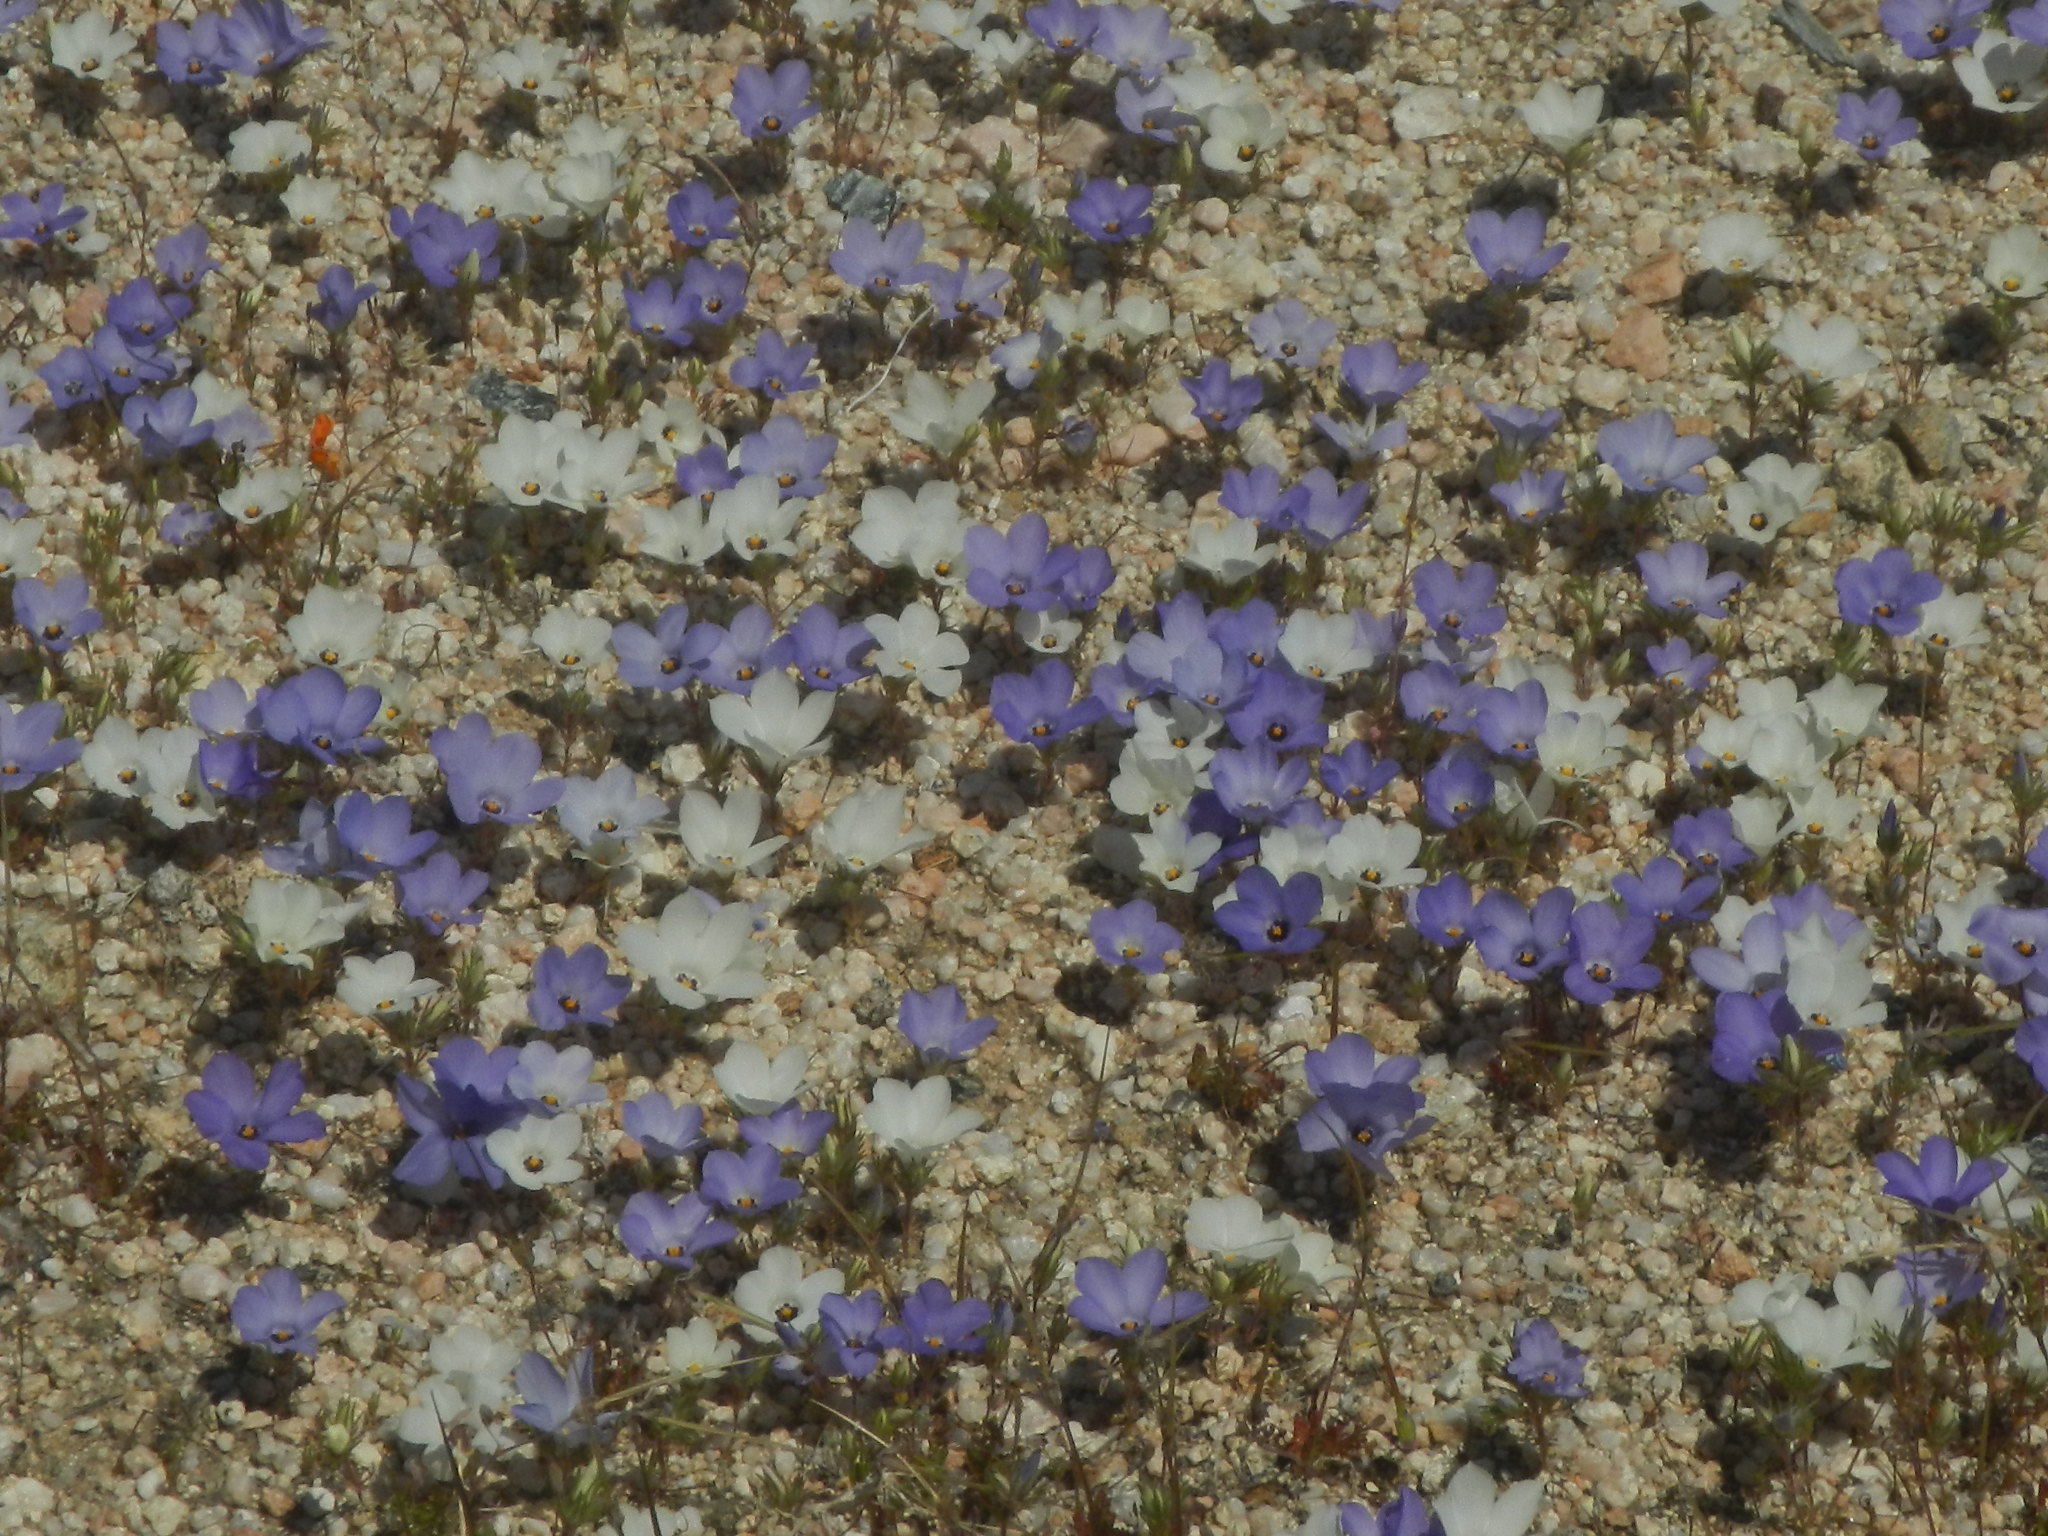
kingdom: Plantae
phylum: Tracheophyta
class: Magnoliopsida
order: Ericales
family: Polemoniaceae
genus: Linanthus
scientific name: Linanthus parryae
